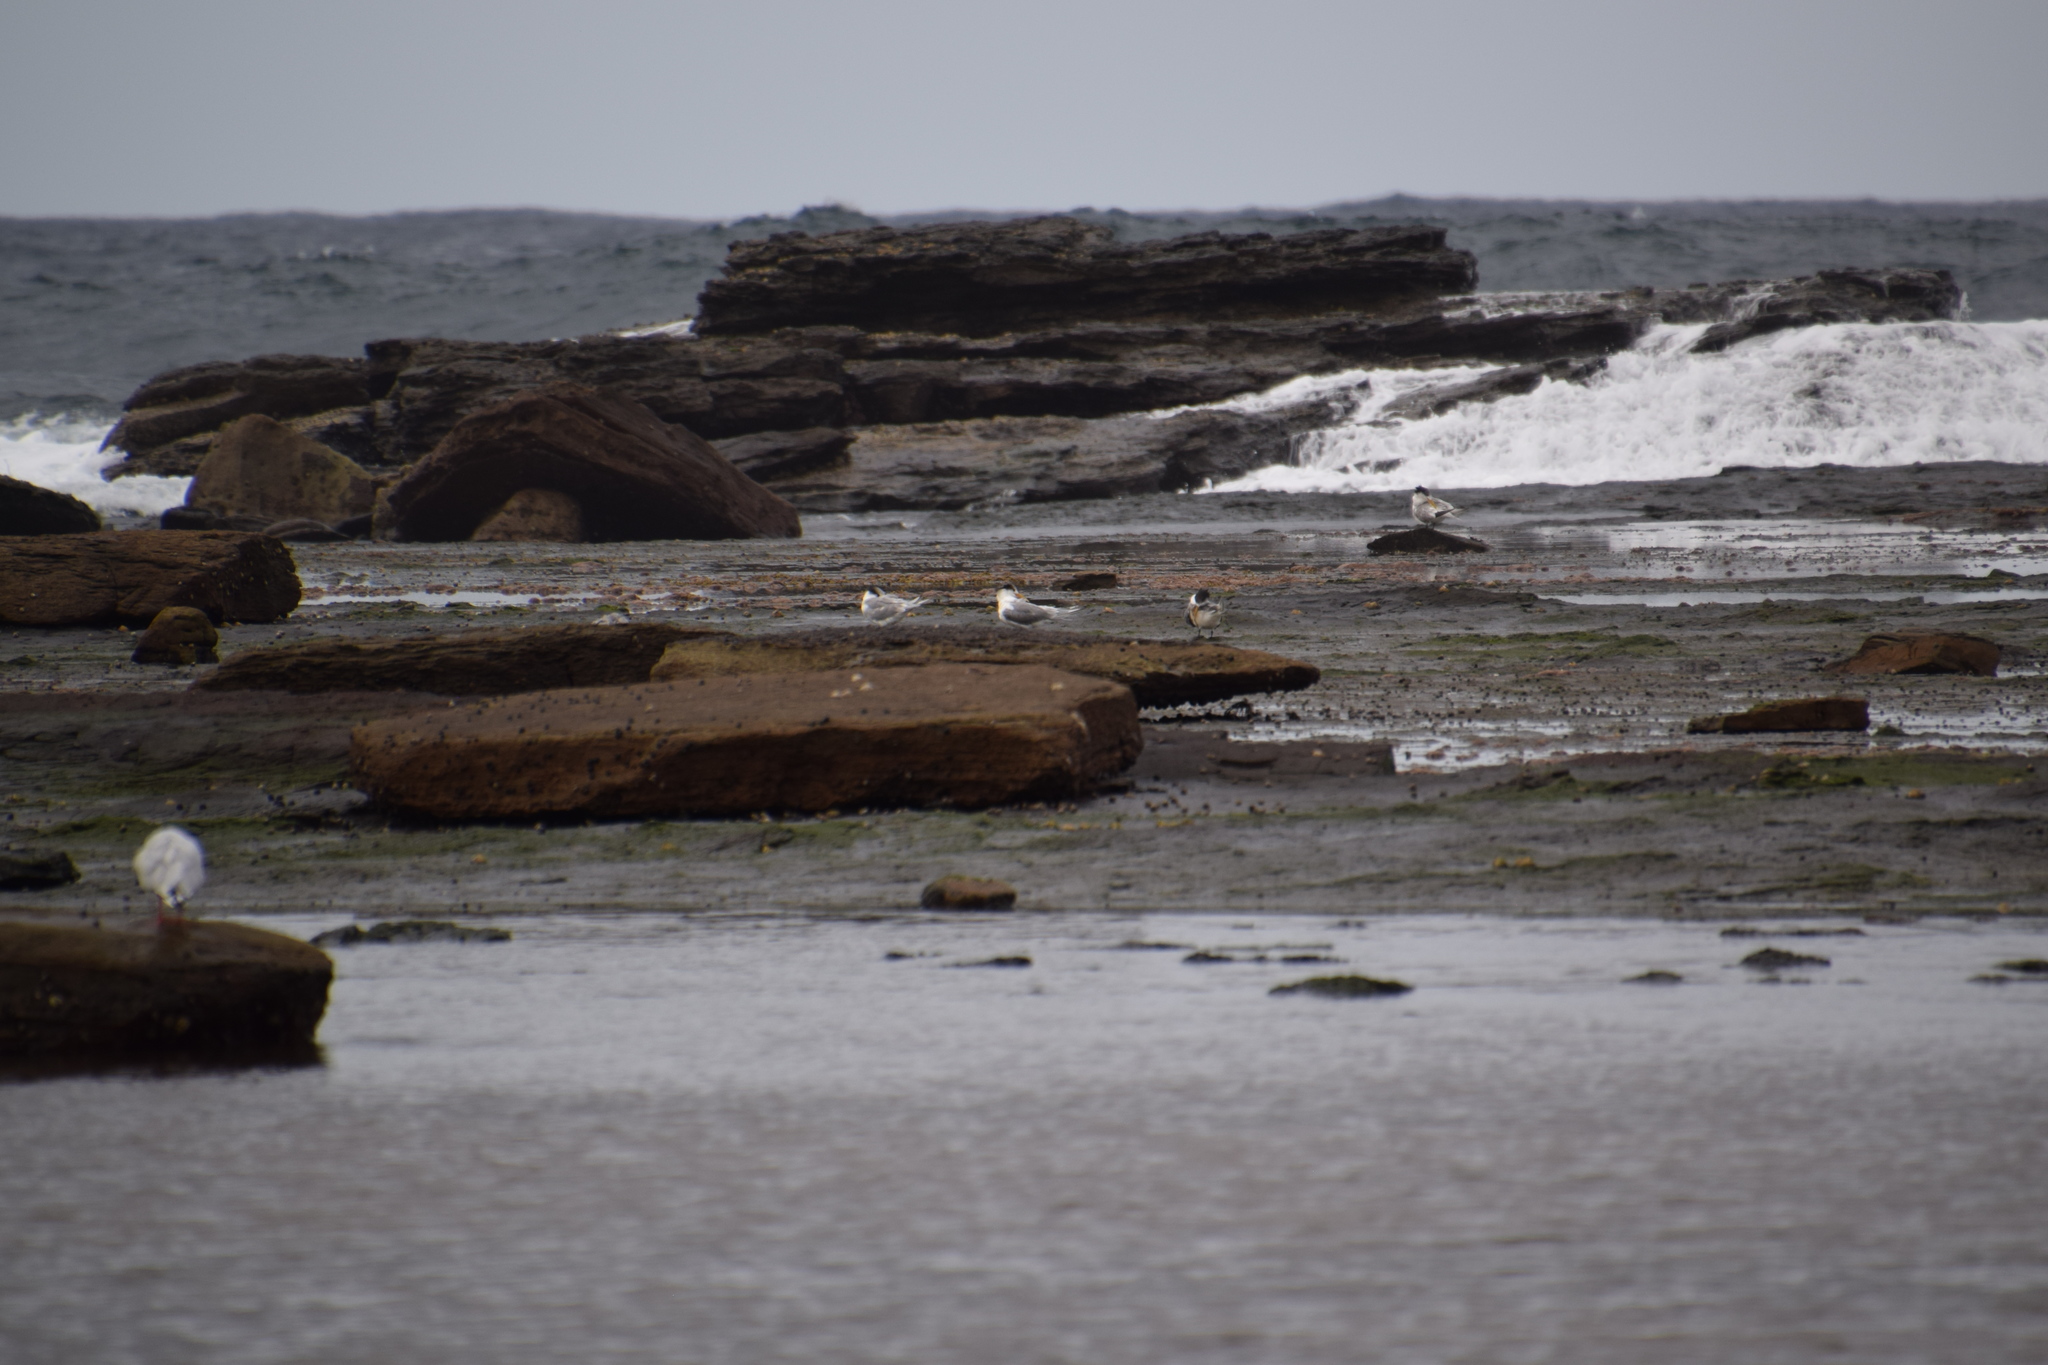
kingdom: Animalia
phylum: Chordata
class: Aves
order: Charadriiformes
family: Laridae
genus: Thalasseus
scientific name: Thalasseus bergii
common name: Greater crested tern
